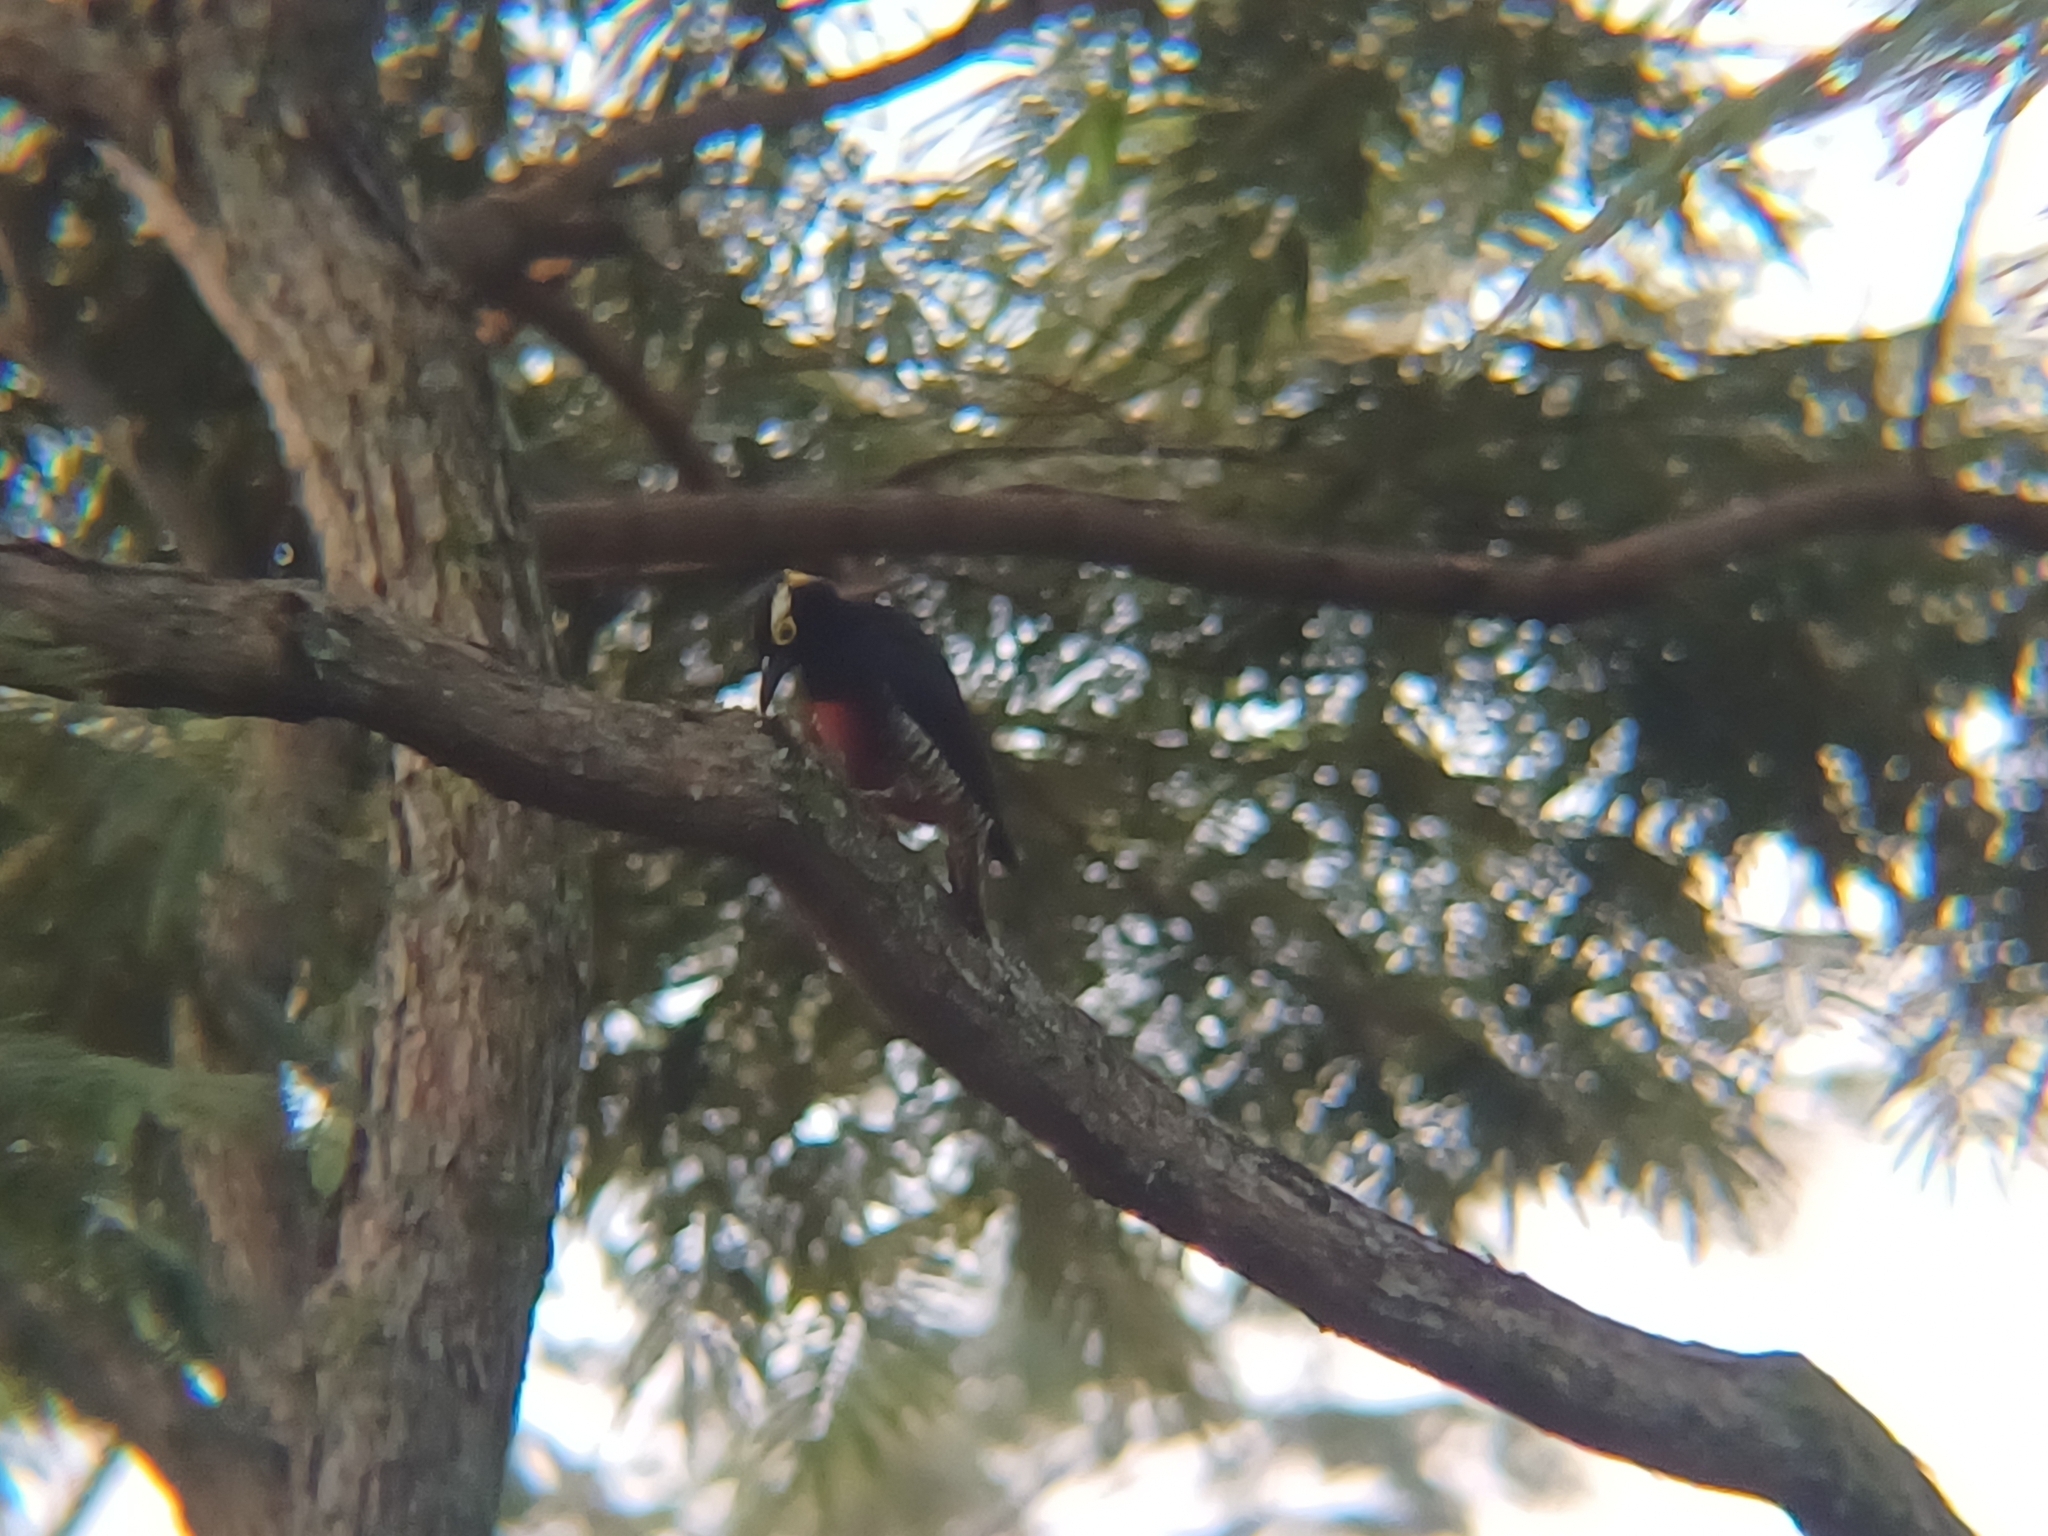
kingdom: Animalia
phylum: Chordata
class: Aves
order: Piciformes
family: Picidae
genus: Melanerpes
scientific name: Melanerpes cruentatus
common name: Yellow-tufted woodpecker
